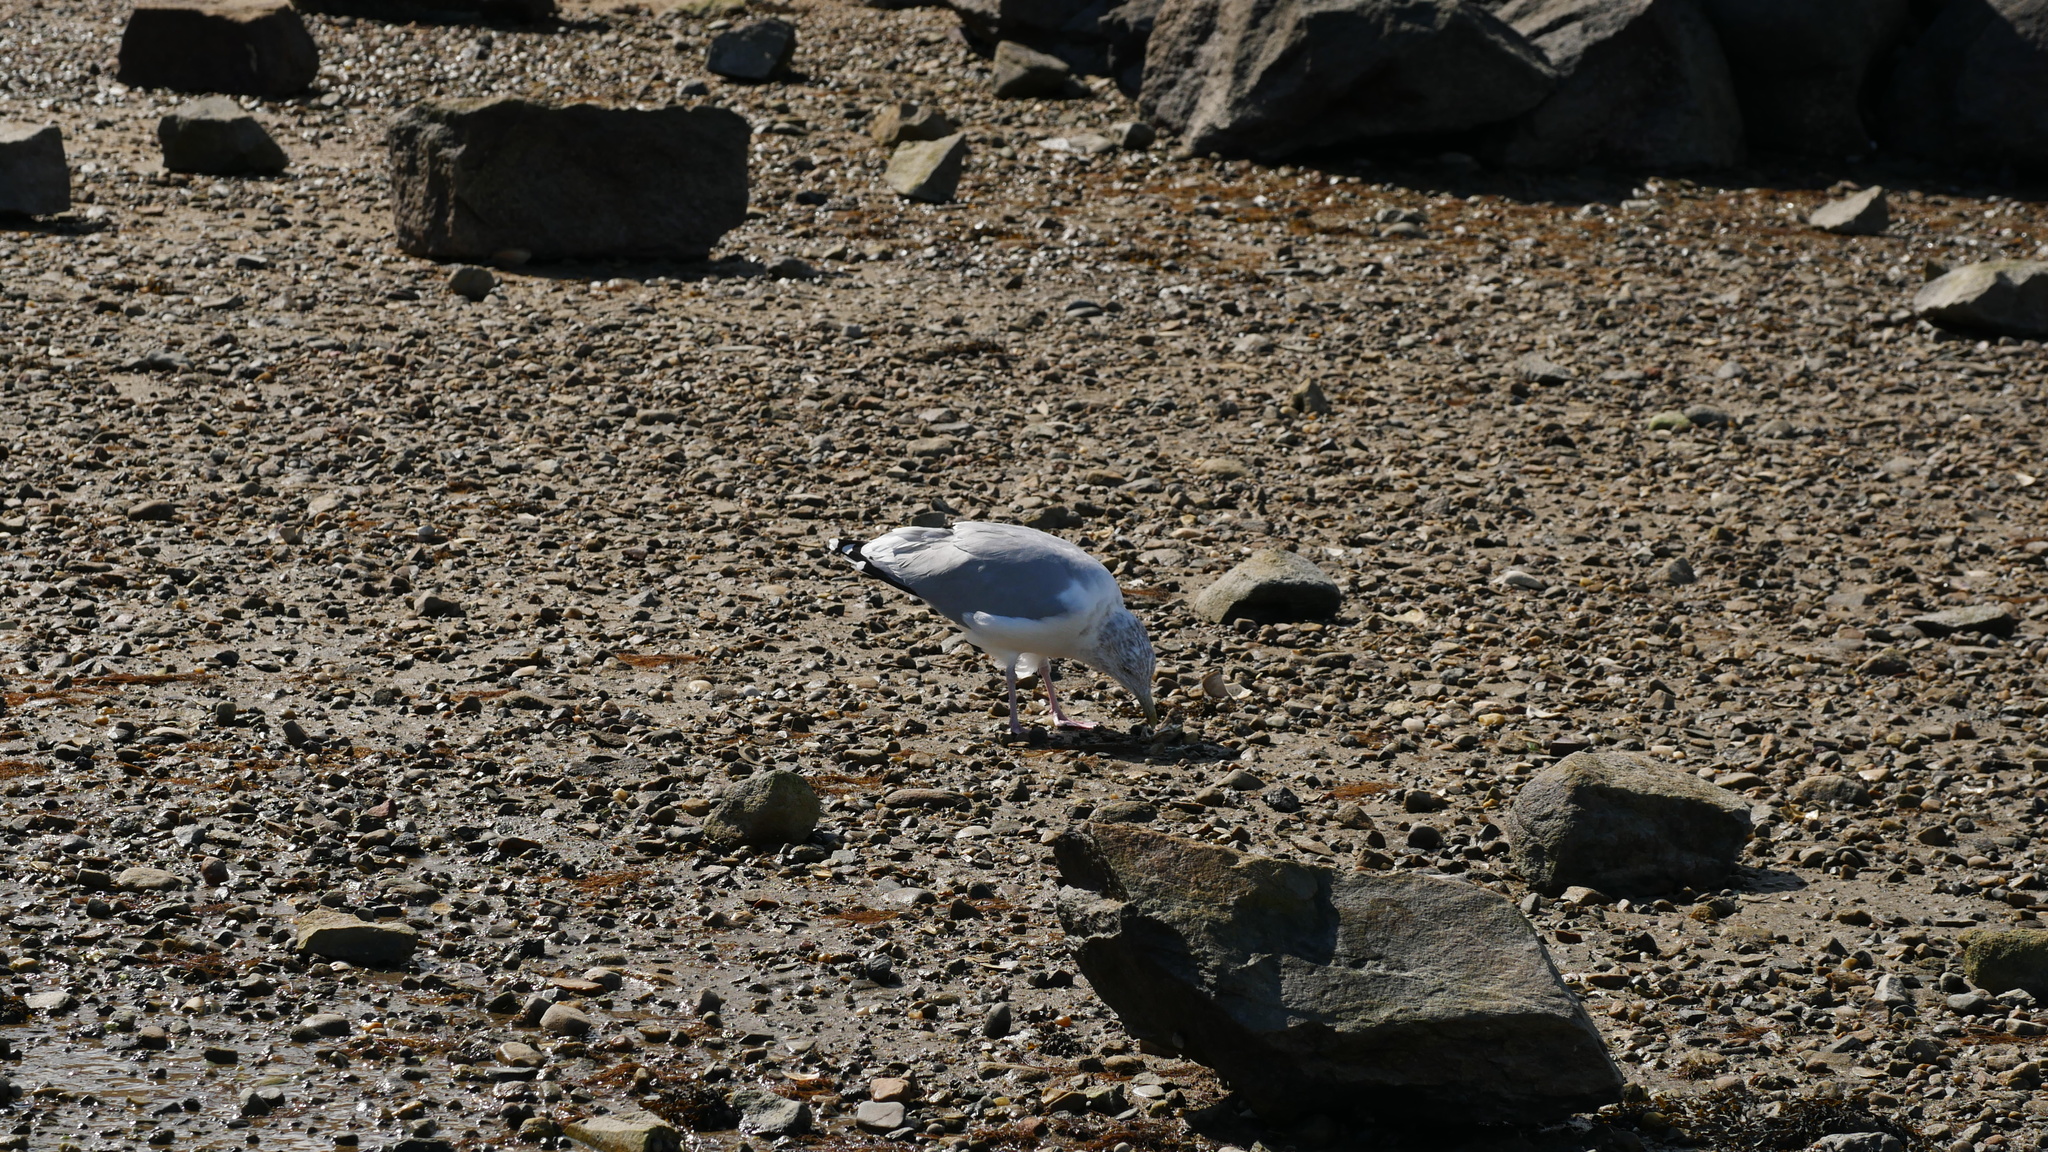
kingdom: Animalia
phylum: Chordata
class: Aves
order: Charadriiformes
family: Laridae
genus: Larus
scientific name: Larus argentatus
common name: Herring gull
